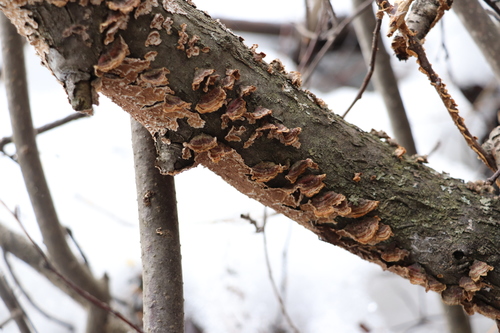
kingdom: Fungi
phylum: Basidiomycota
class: Agaricomycetes
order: Hymenochaetales
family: Hymenochaetaceae
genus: Hydnoporia
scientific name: Hydnoporia tabacina
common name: Willow glue
